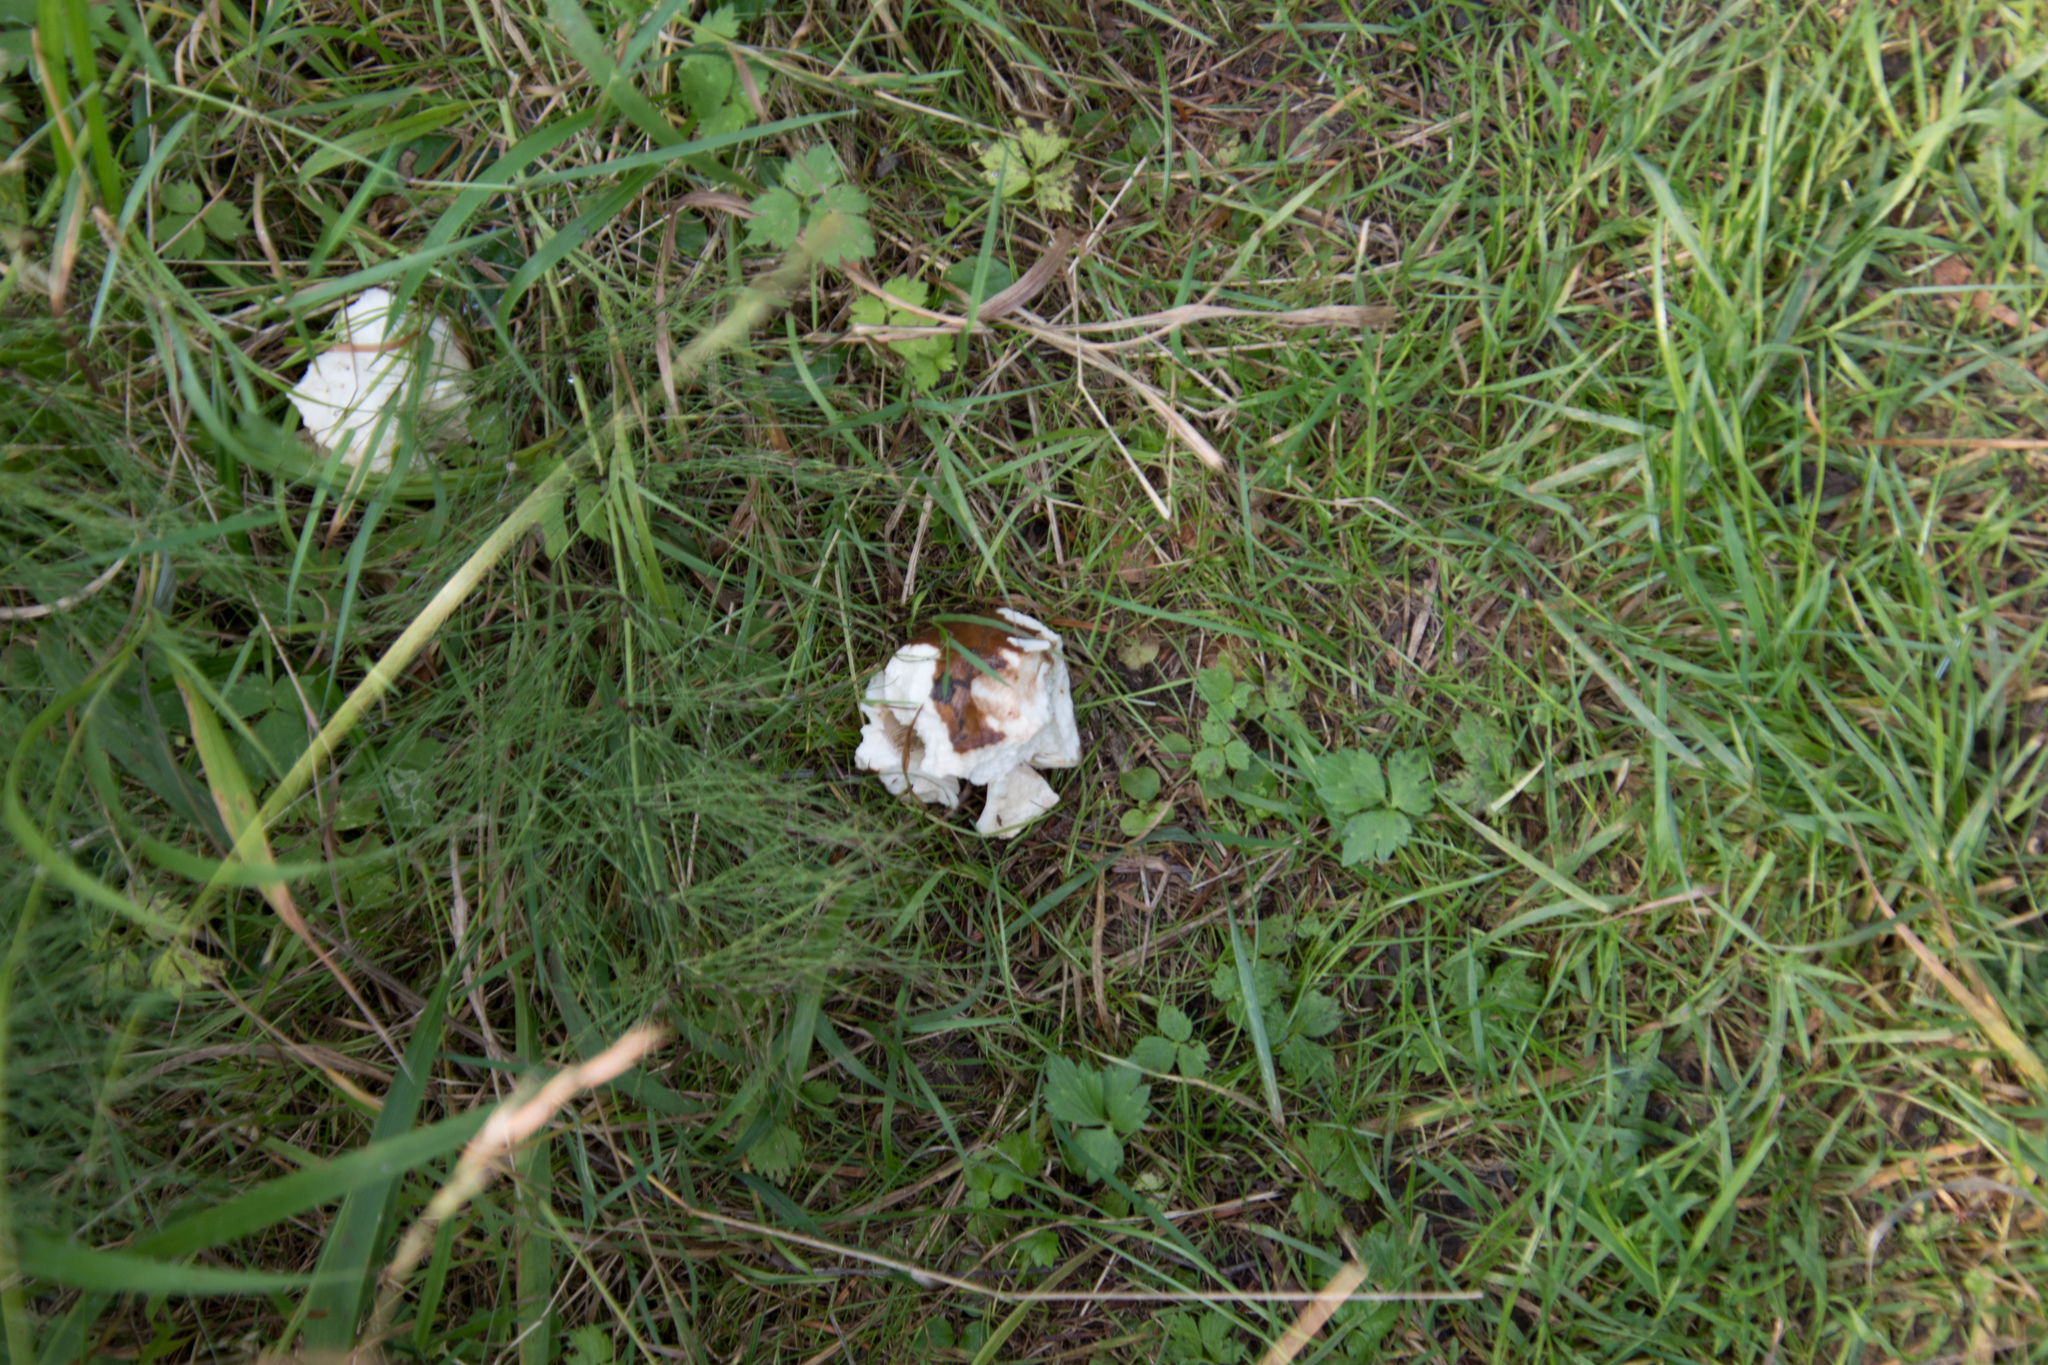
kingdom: Fungi
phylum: Basidiomycota
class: Agaricomycetes
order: Boletales
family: Boletaceae
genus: Boletus
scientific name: Boletus edulis
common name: Cep
